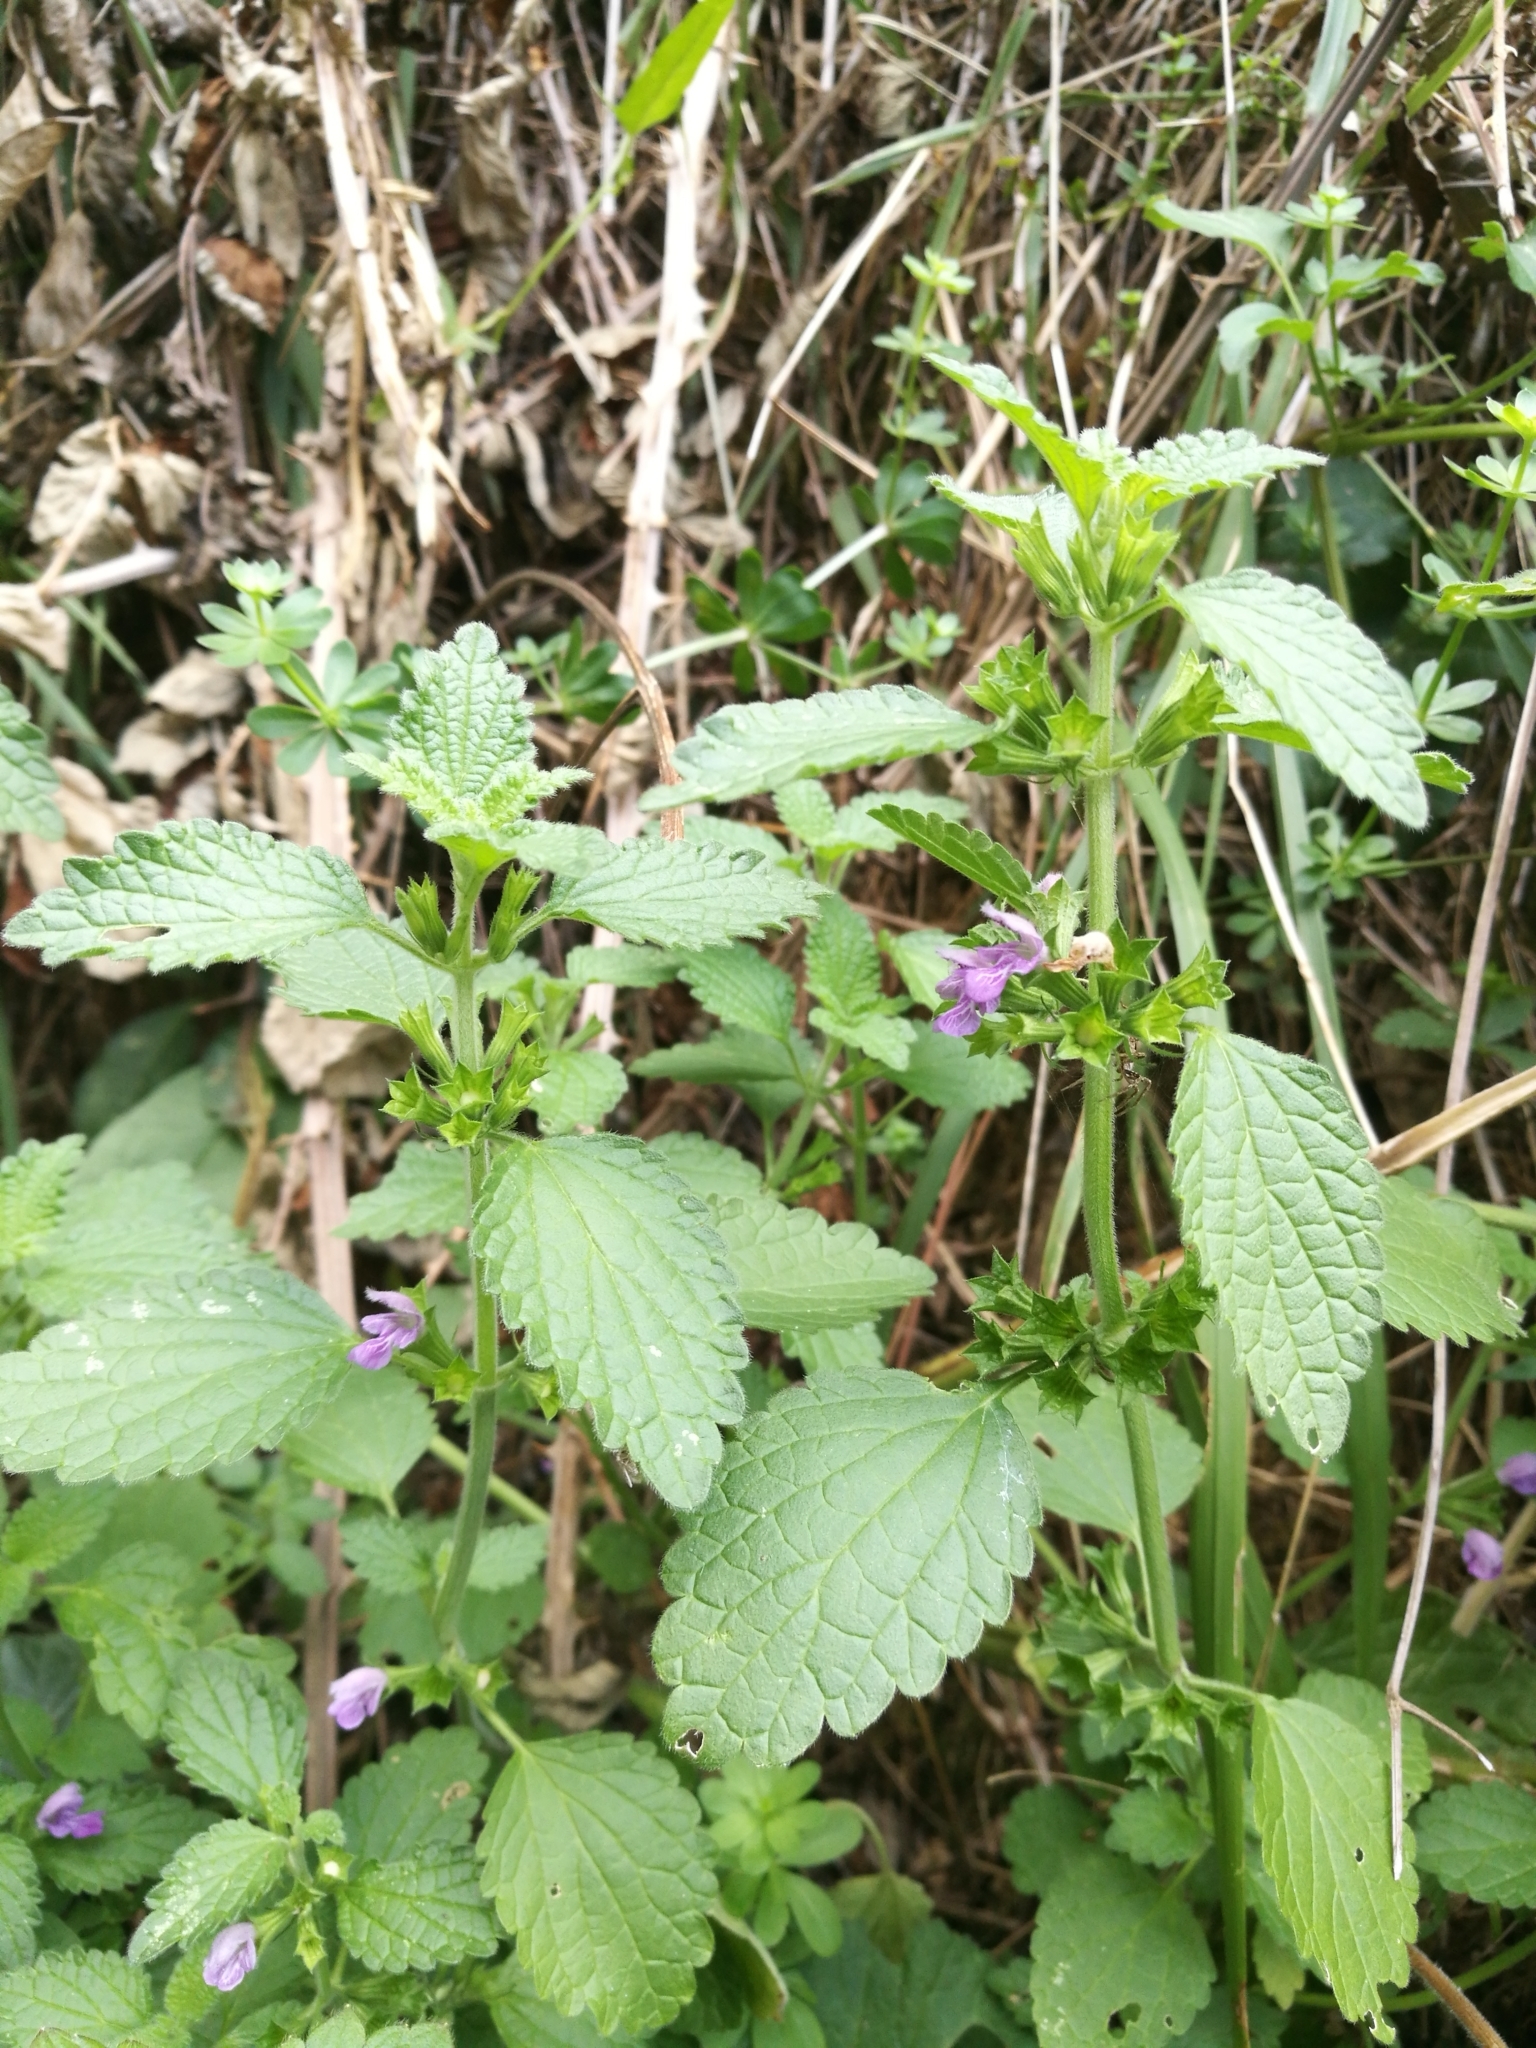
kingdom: Plantae
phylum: Tracheophyta
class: Magnoliopsida
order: Lamiales
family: Lamiaceae
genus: Ballota
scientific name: Ballota nigra
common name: Black horehound
